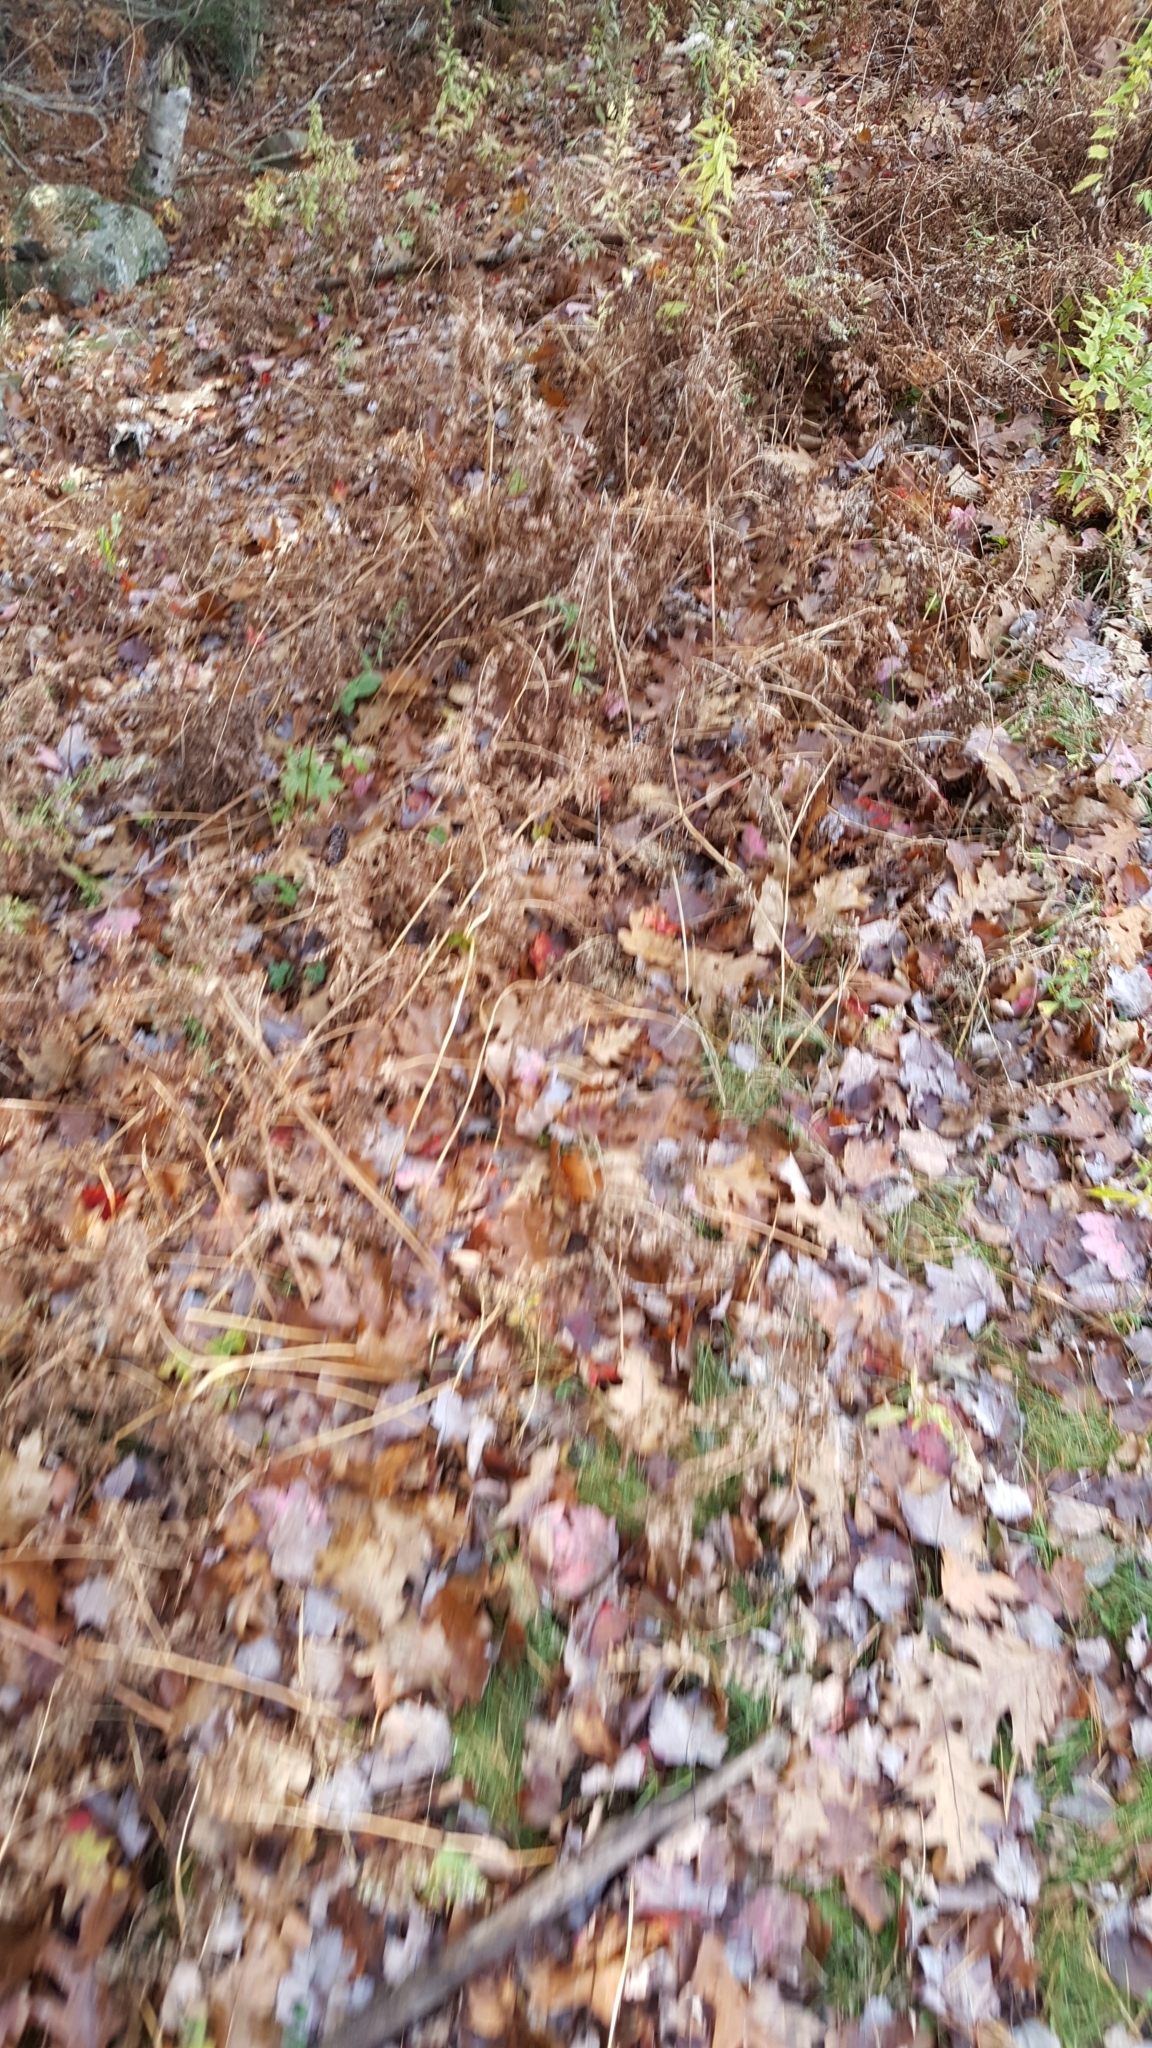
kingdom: Plantae
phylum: Tracheophyta
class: Polypodiopsida
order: Polypodiales
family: Dennstaedtiaceae
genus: Pteridium
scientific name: Pteridium aquilinum
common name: Bracken
